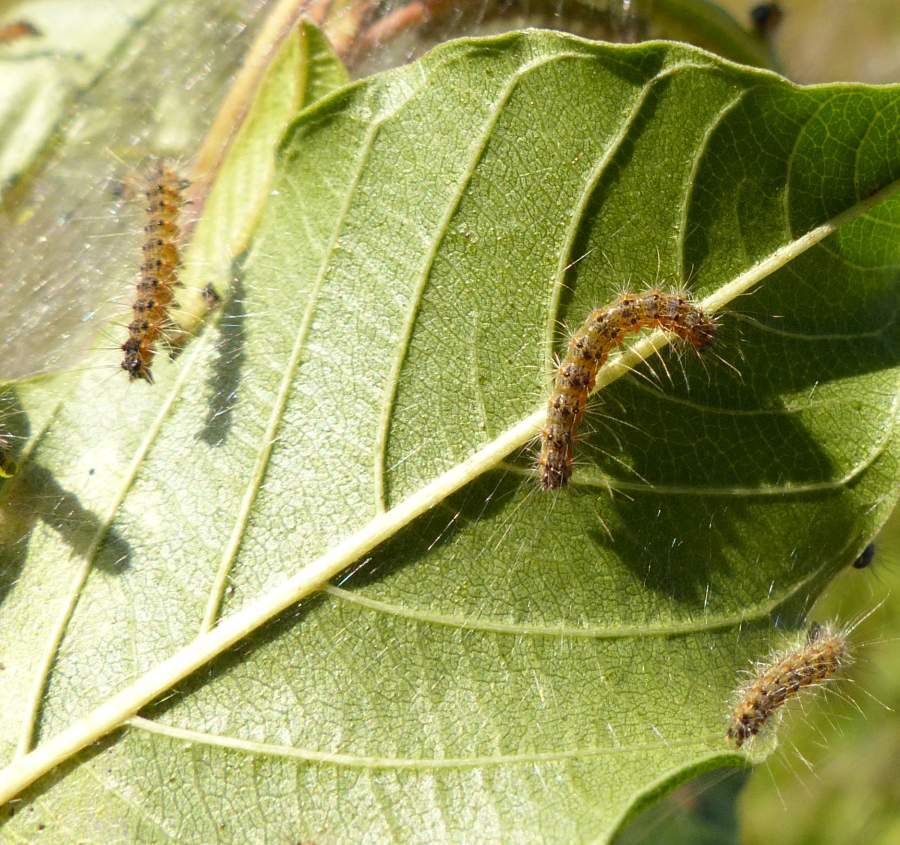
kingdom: Animalia
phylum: Arthropoda
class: Insecta
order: Lepidoptera
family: Erebidae
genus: Hyphantria
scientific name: Hyphantria cunea
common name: American white moth
